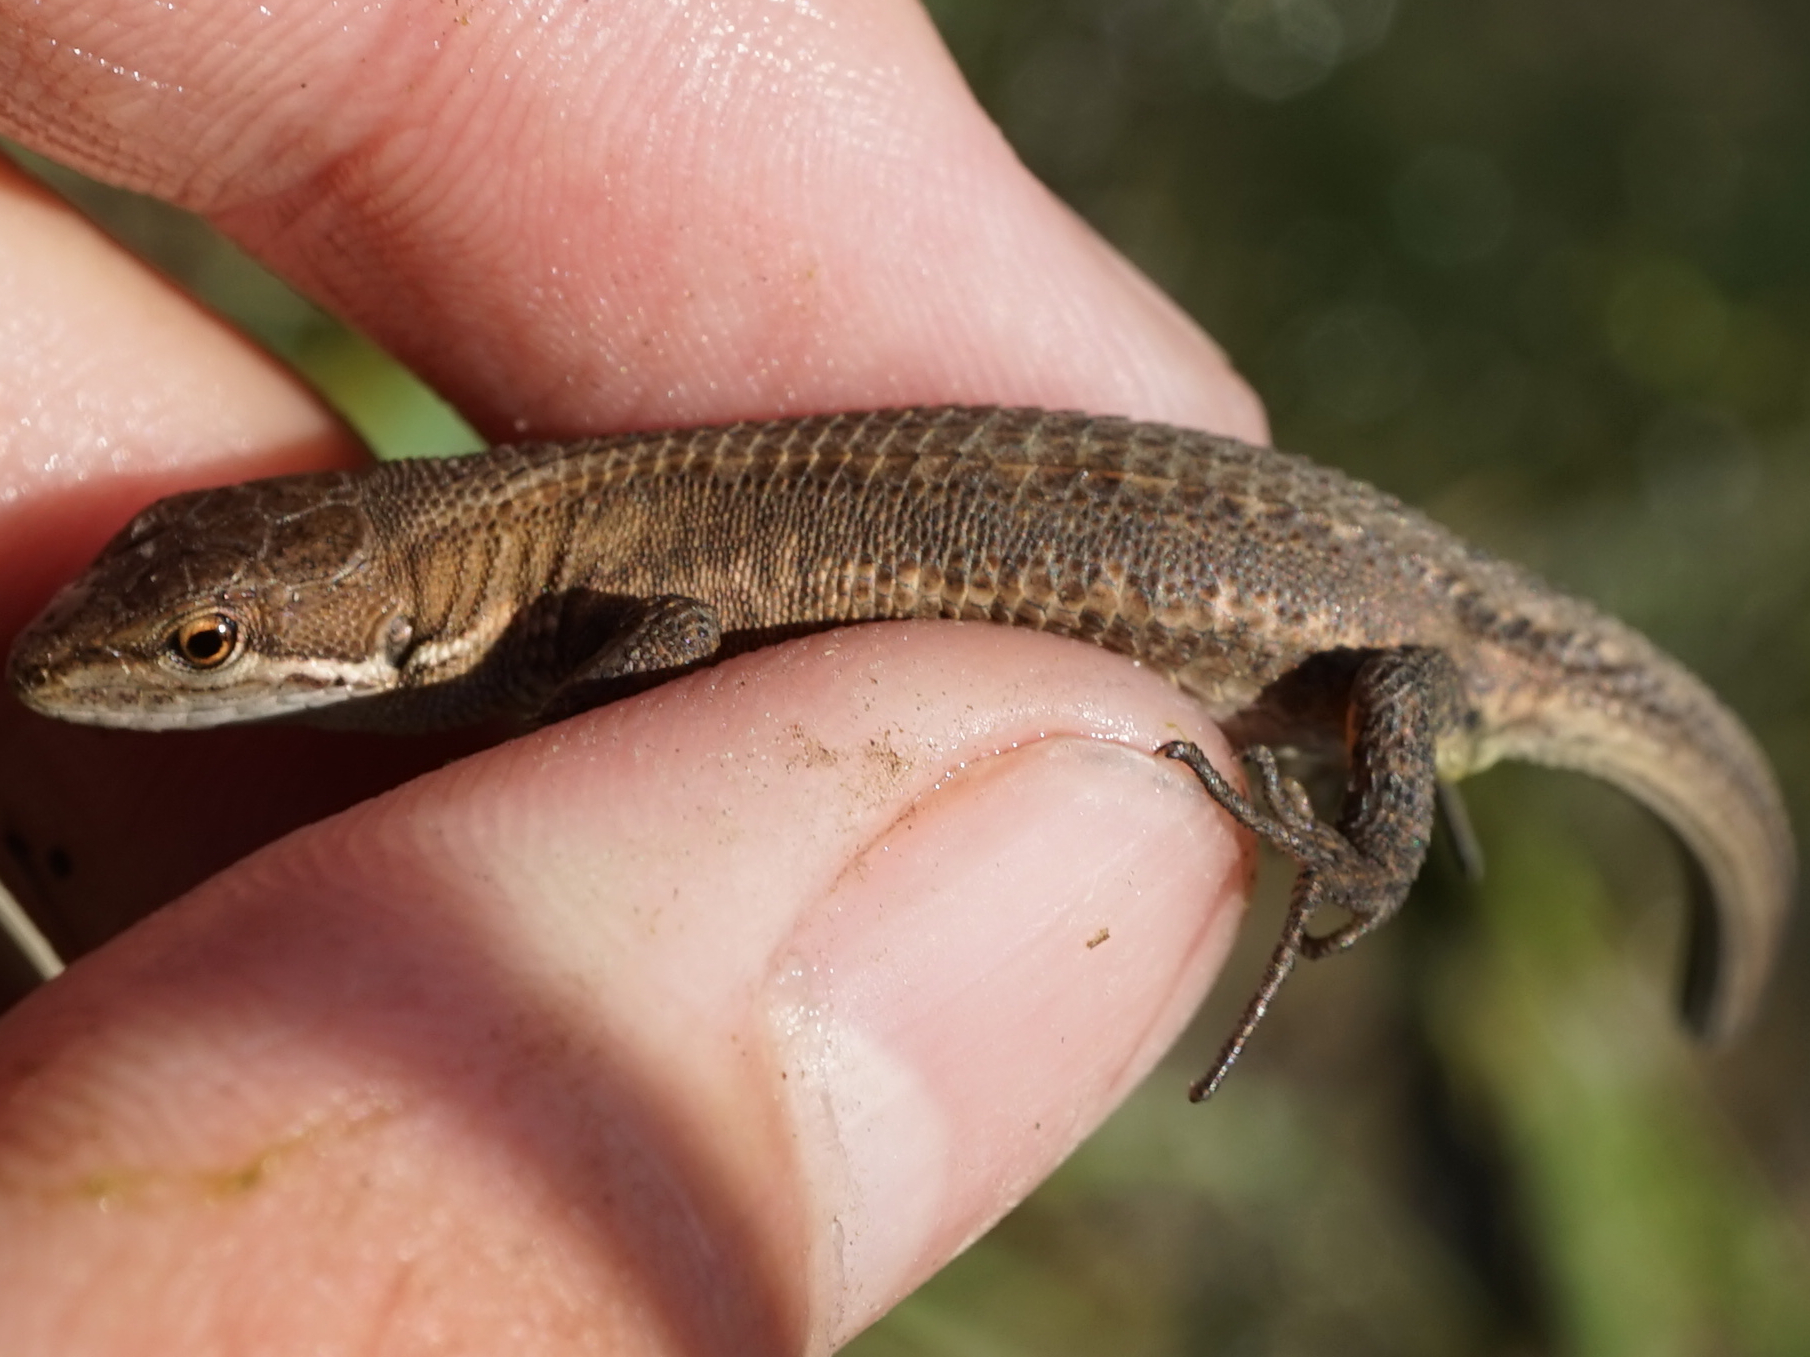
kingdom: Animalia
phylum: Chordata
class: Squamata
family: Lacertidae
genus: Takydromus
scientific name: Takydromus tachydromoides
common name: Japanese grass lizard
